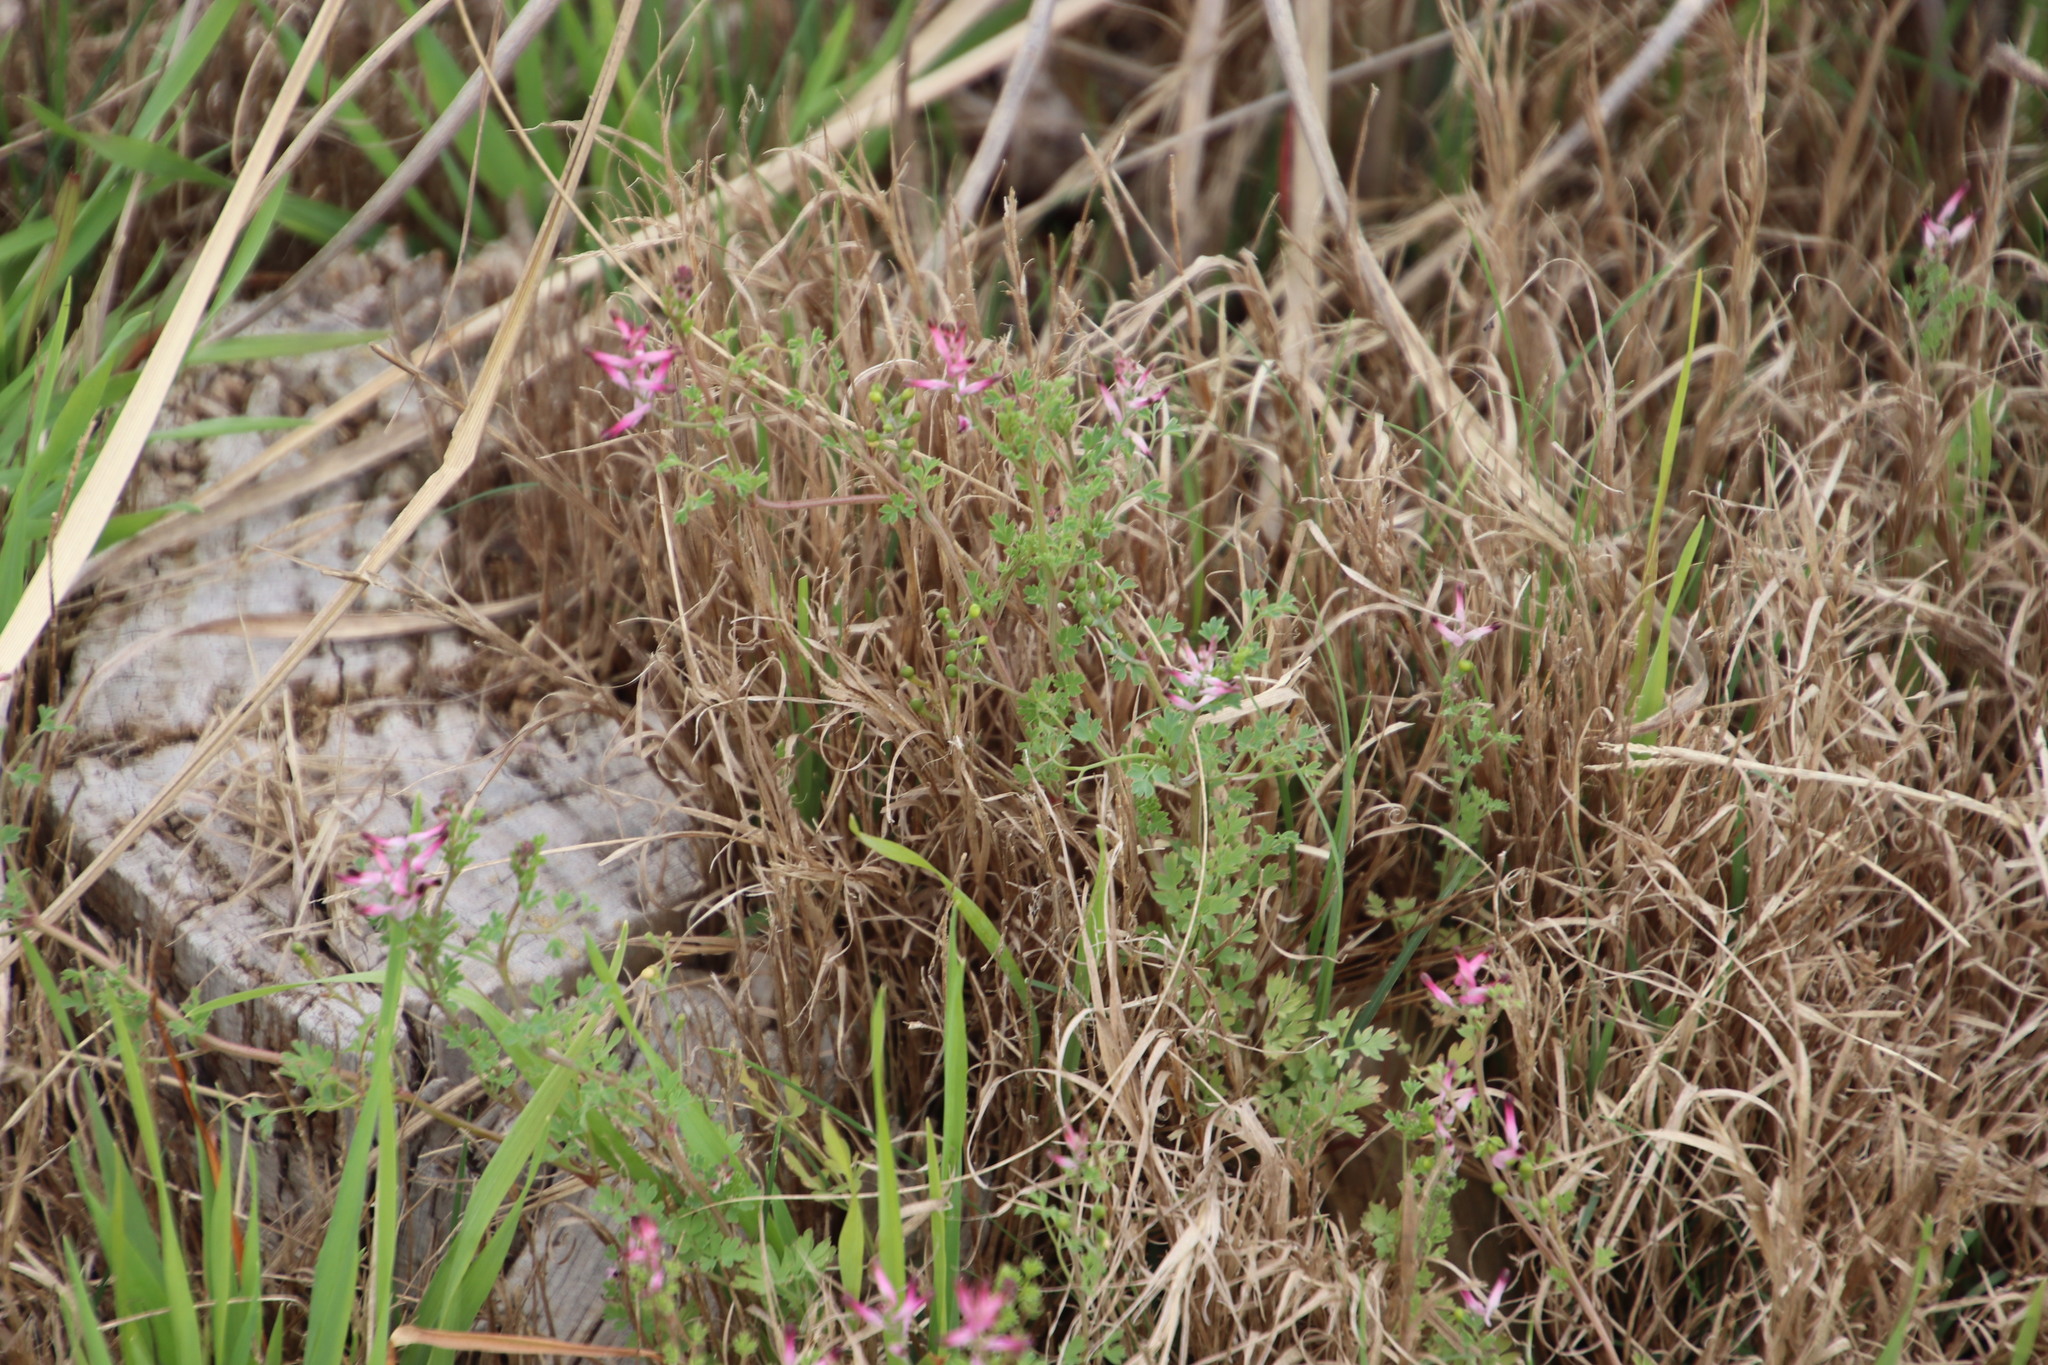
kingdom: Plantae
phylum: Tracheophyta
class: Magnoliopsida
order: Ranunculales
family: Papaveraceae
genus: Fumaria
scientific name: Fumaria muralis
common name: Common ramping-fumitory
